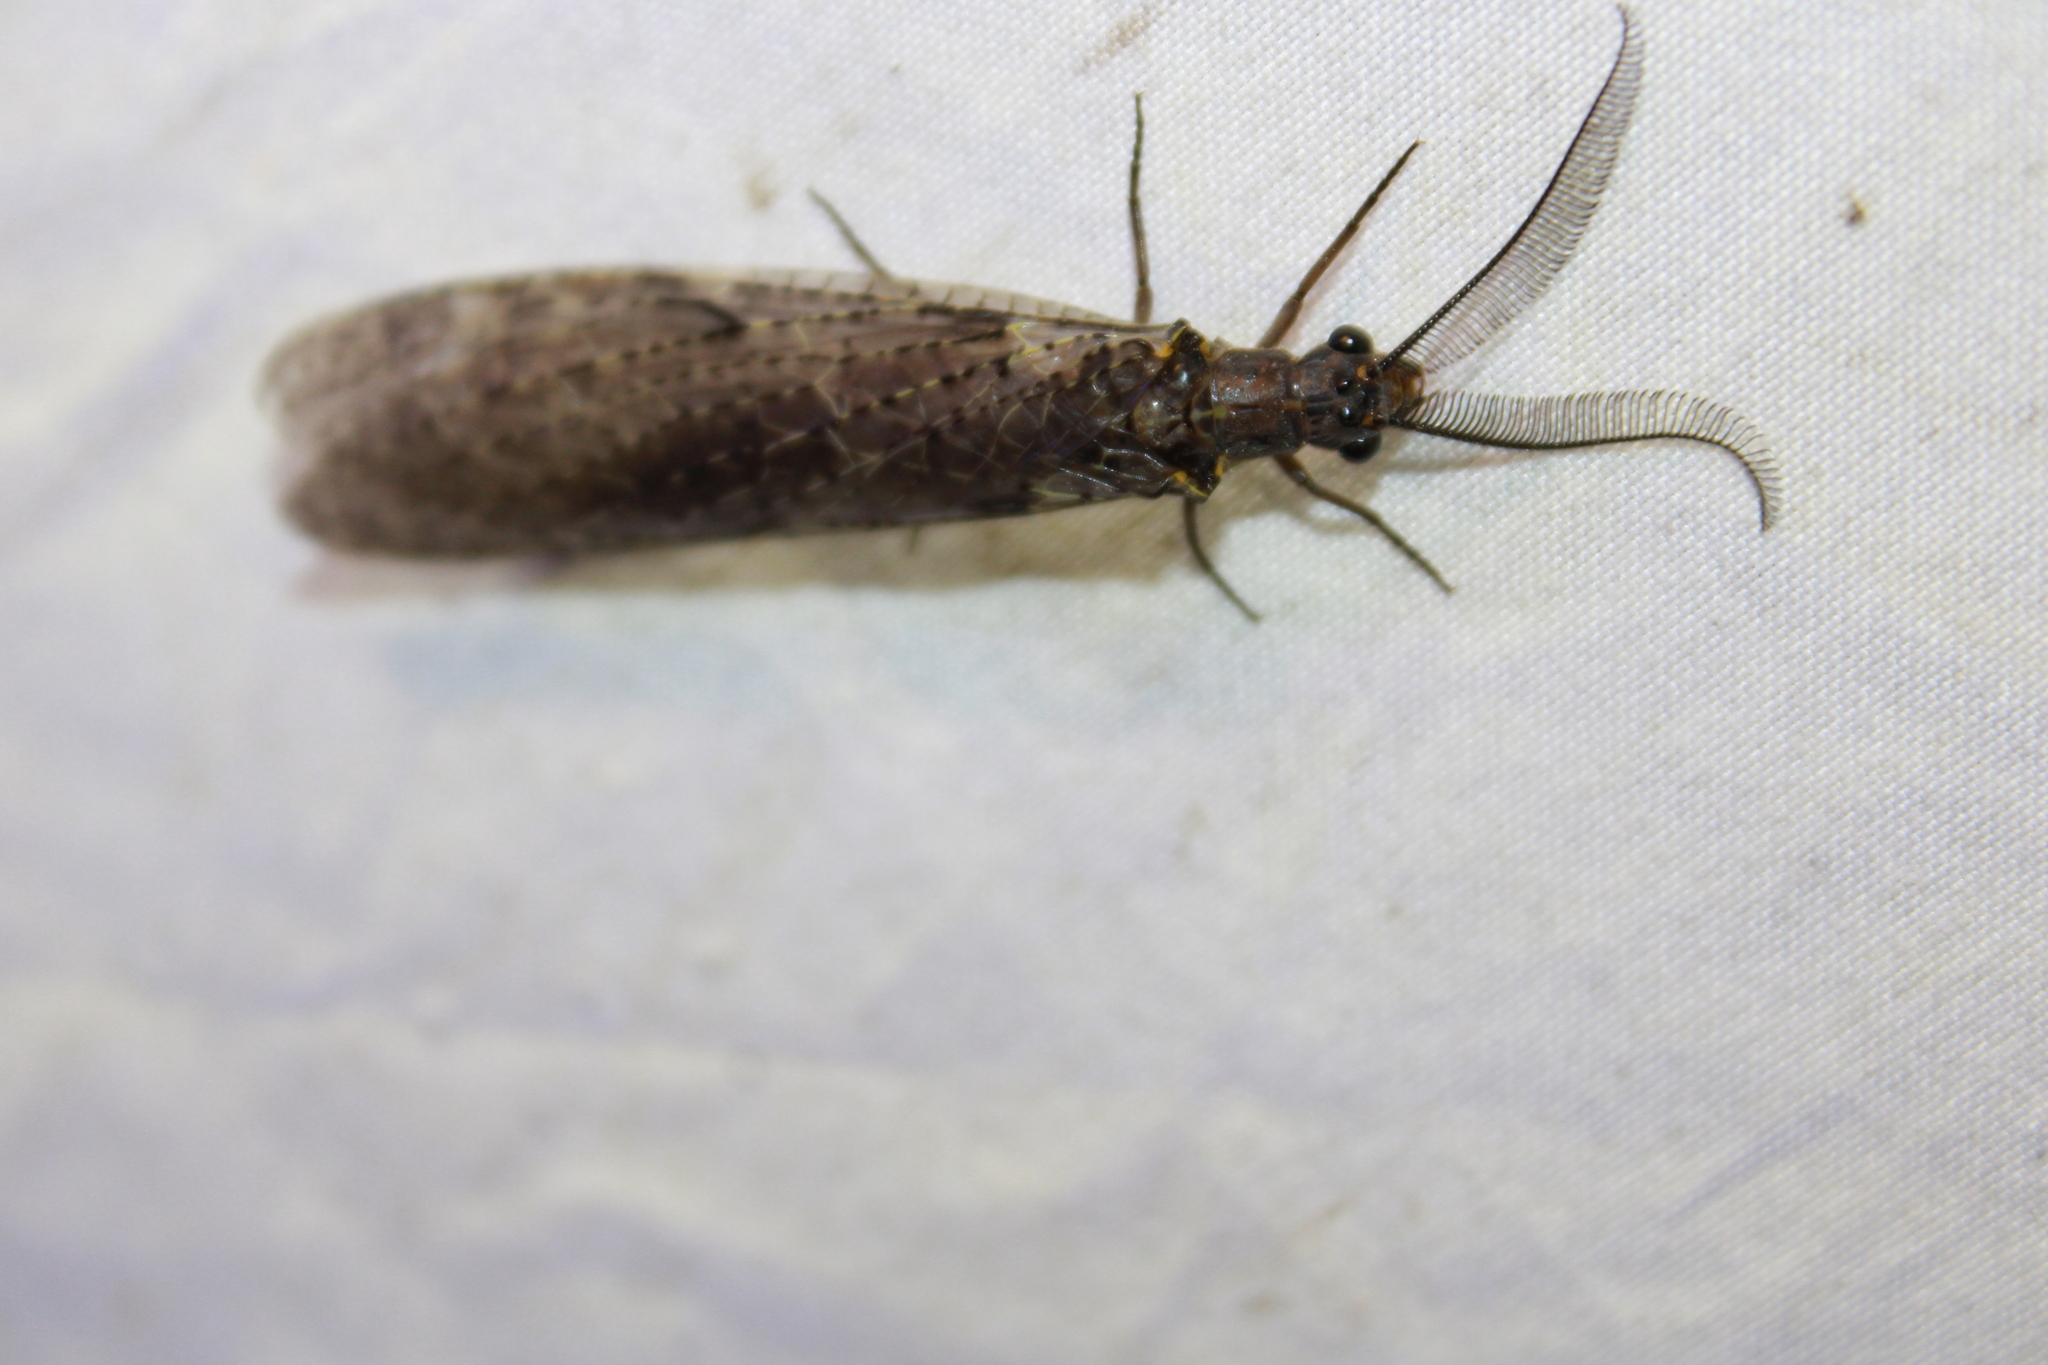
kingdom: Animalia
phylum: Arthropoda
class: Insecta
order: Megaloptera
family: Corydalidae
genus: Chauliodes
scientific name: Chauliodes rastricornis
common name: Spring fishfly
